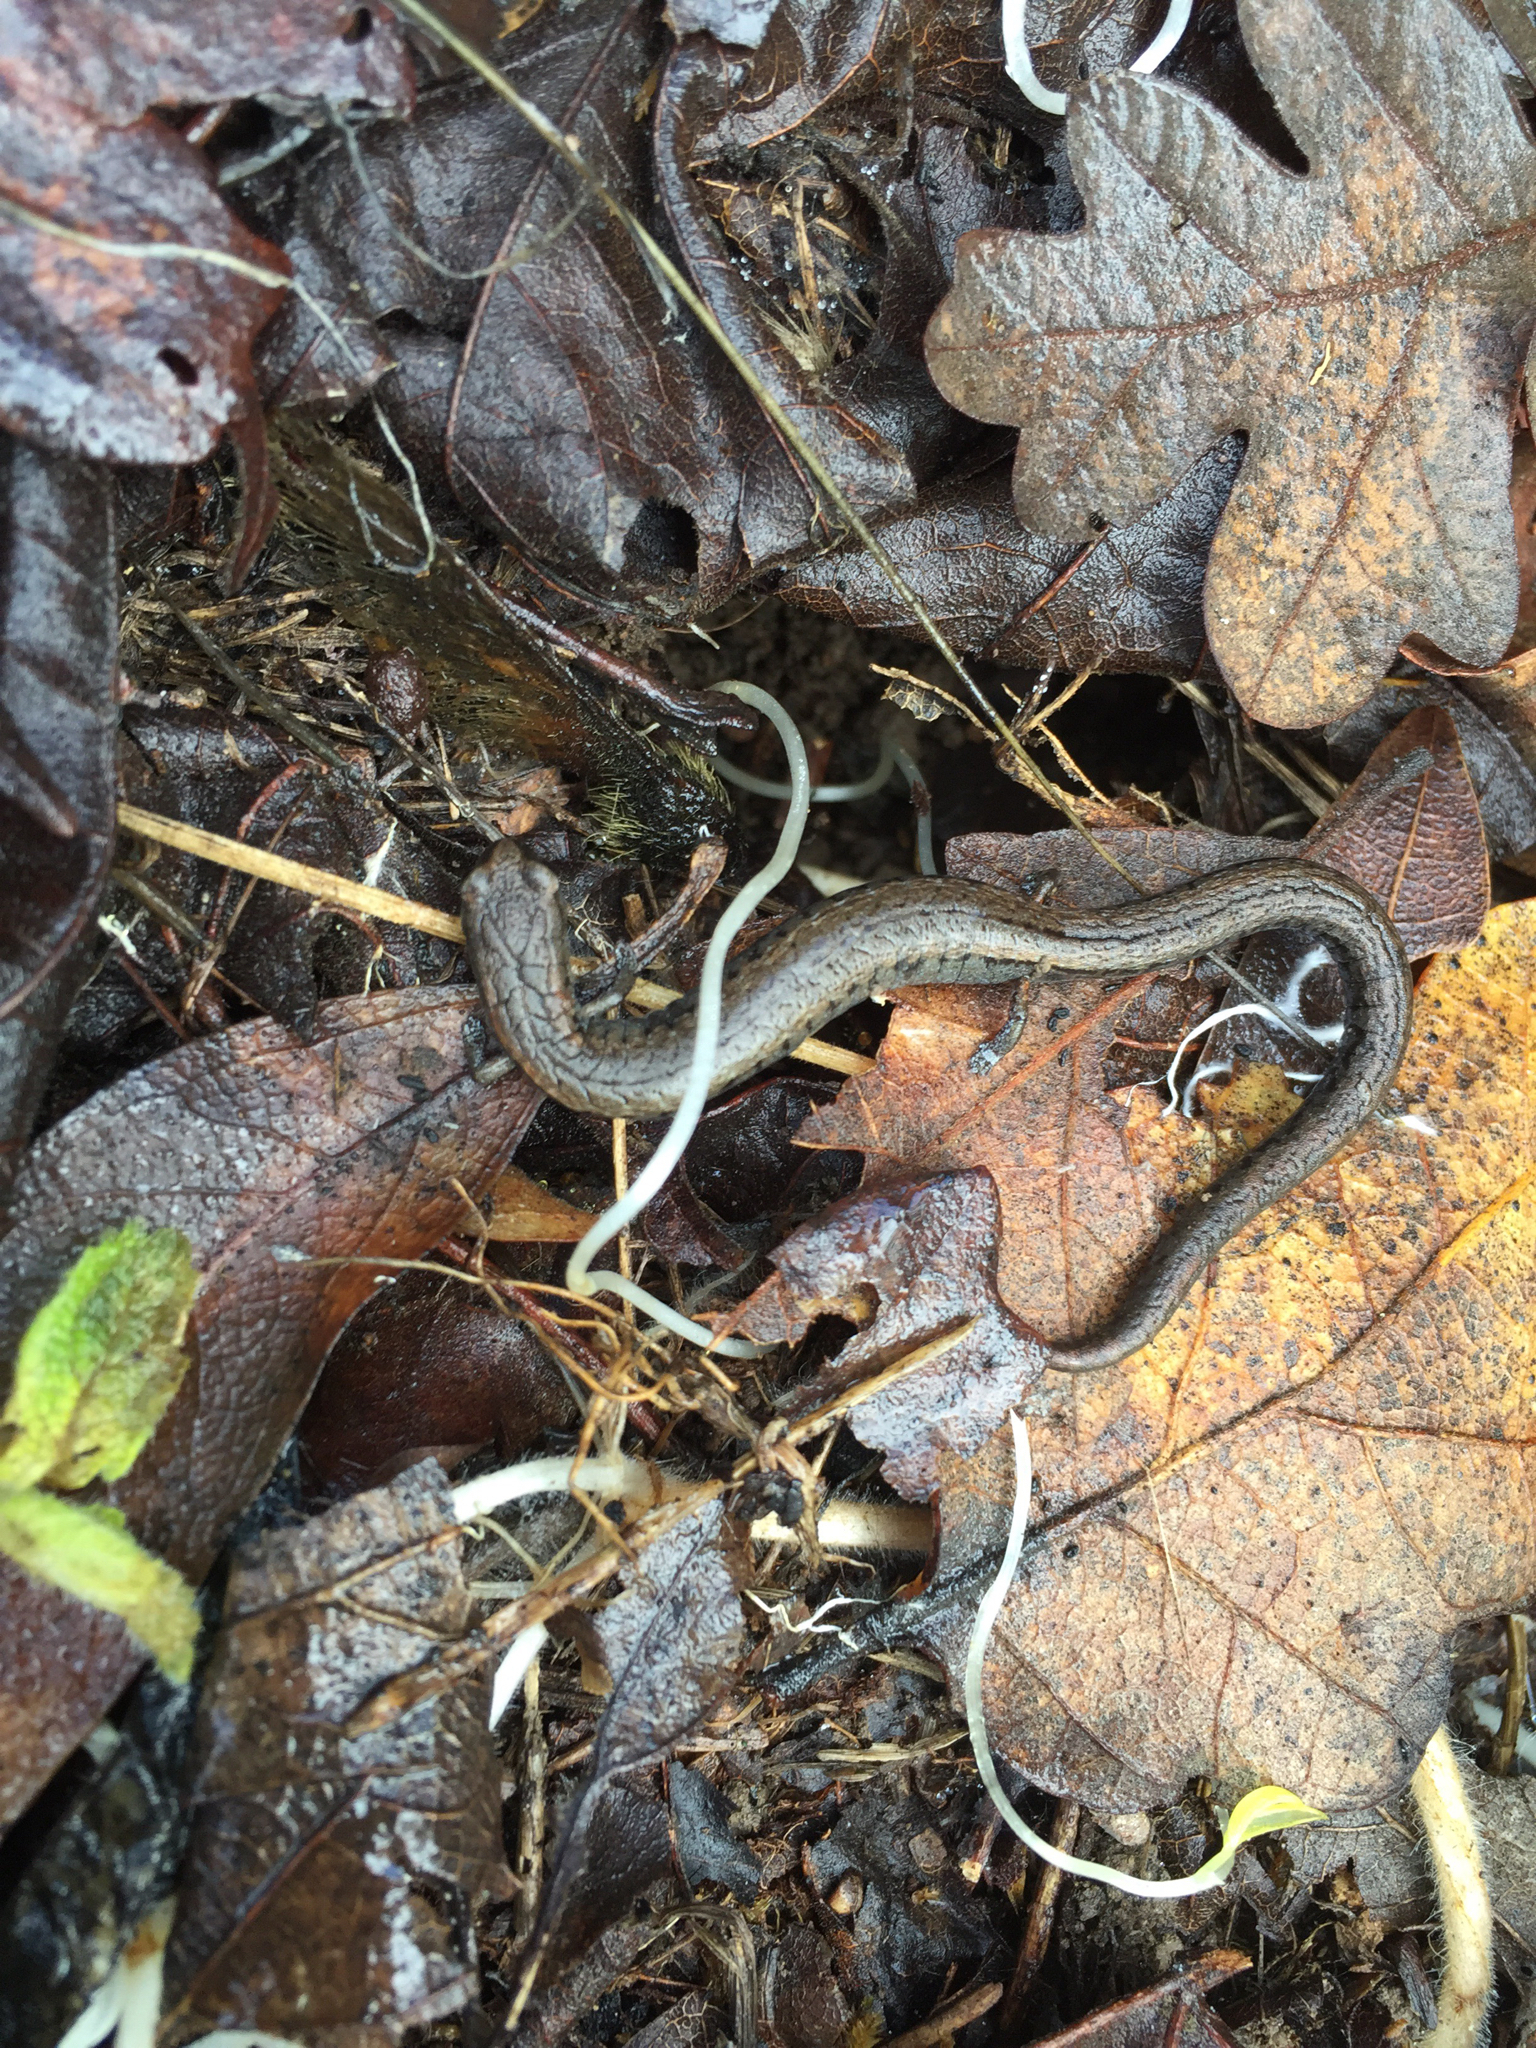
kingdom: Animalia
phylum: Chordata
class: Amphibia
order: Caudata
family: Plethodontidae
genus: Batrachoseps
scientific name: Batrachoseps attenuatus
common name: California slender salamander
